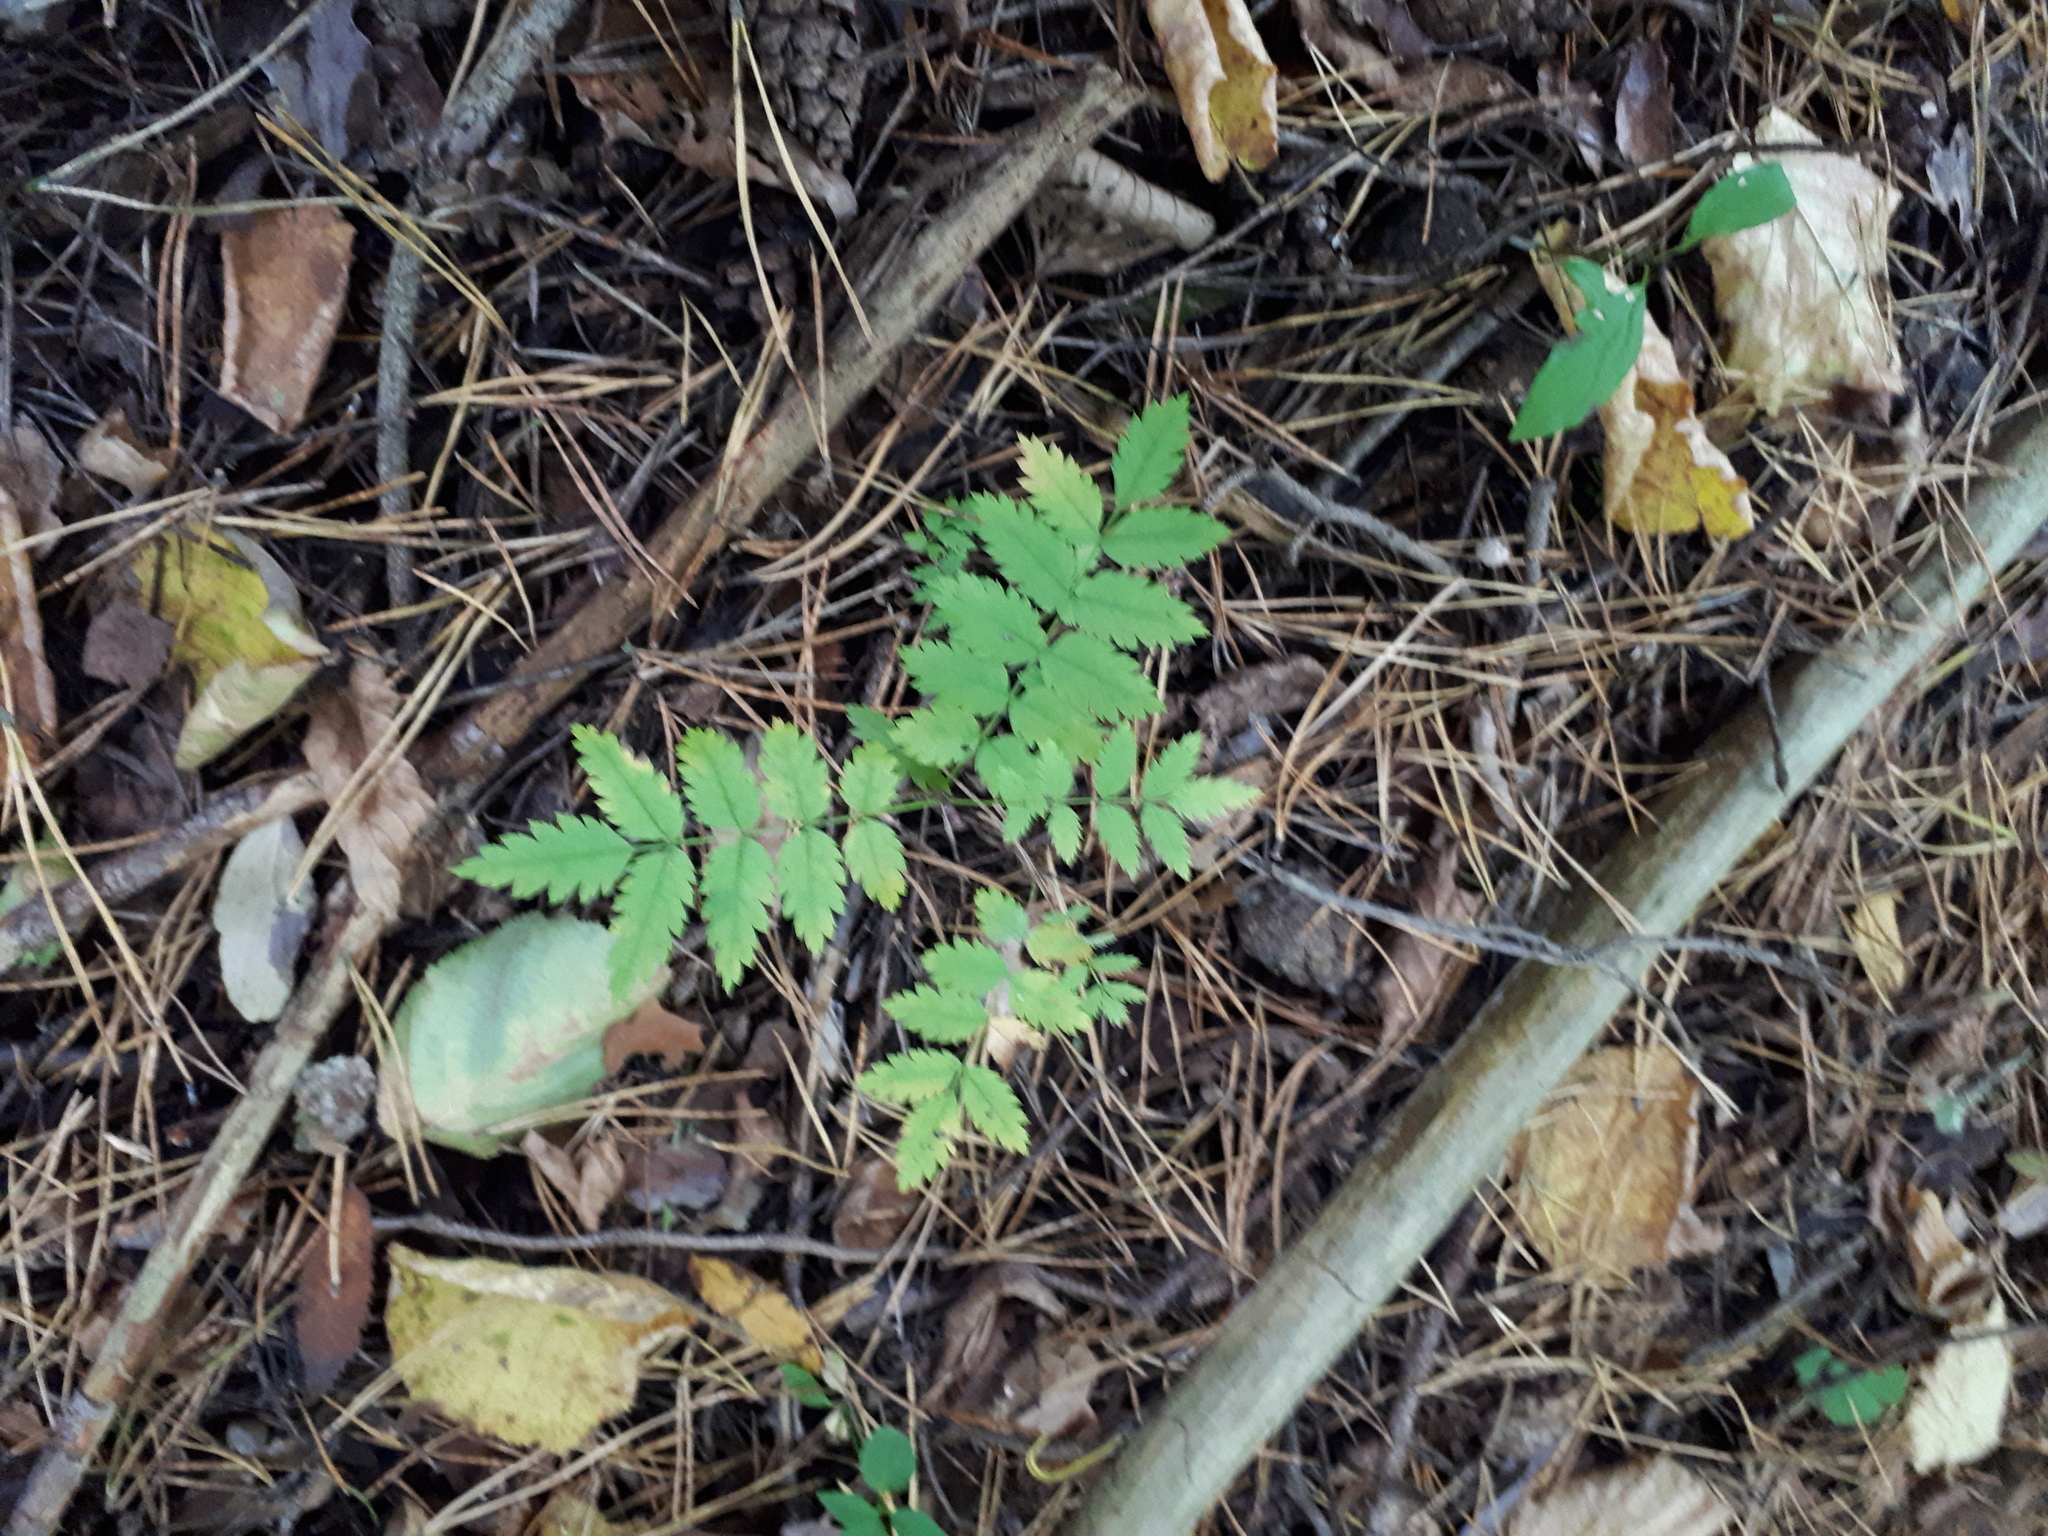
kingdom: Plantae
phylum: Tracheophyta
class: Magnoliopsida
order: Rosales
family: Rosaceae
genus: Sorbus
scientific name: Sorbus aucuparia
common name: Rowan
